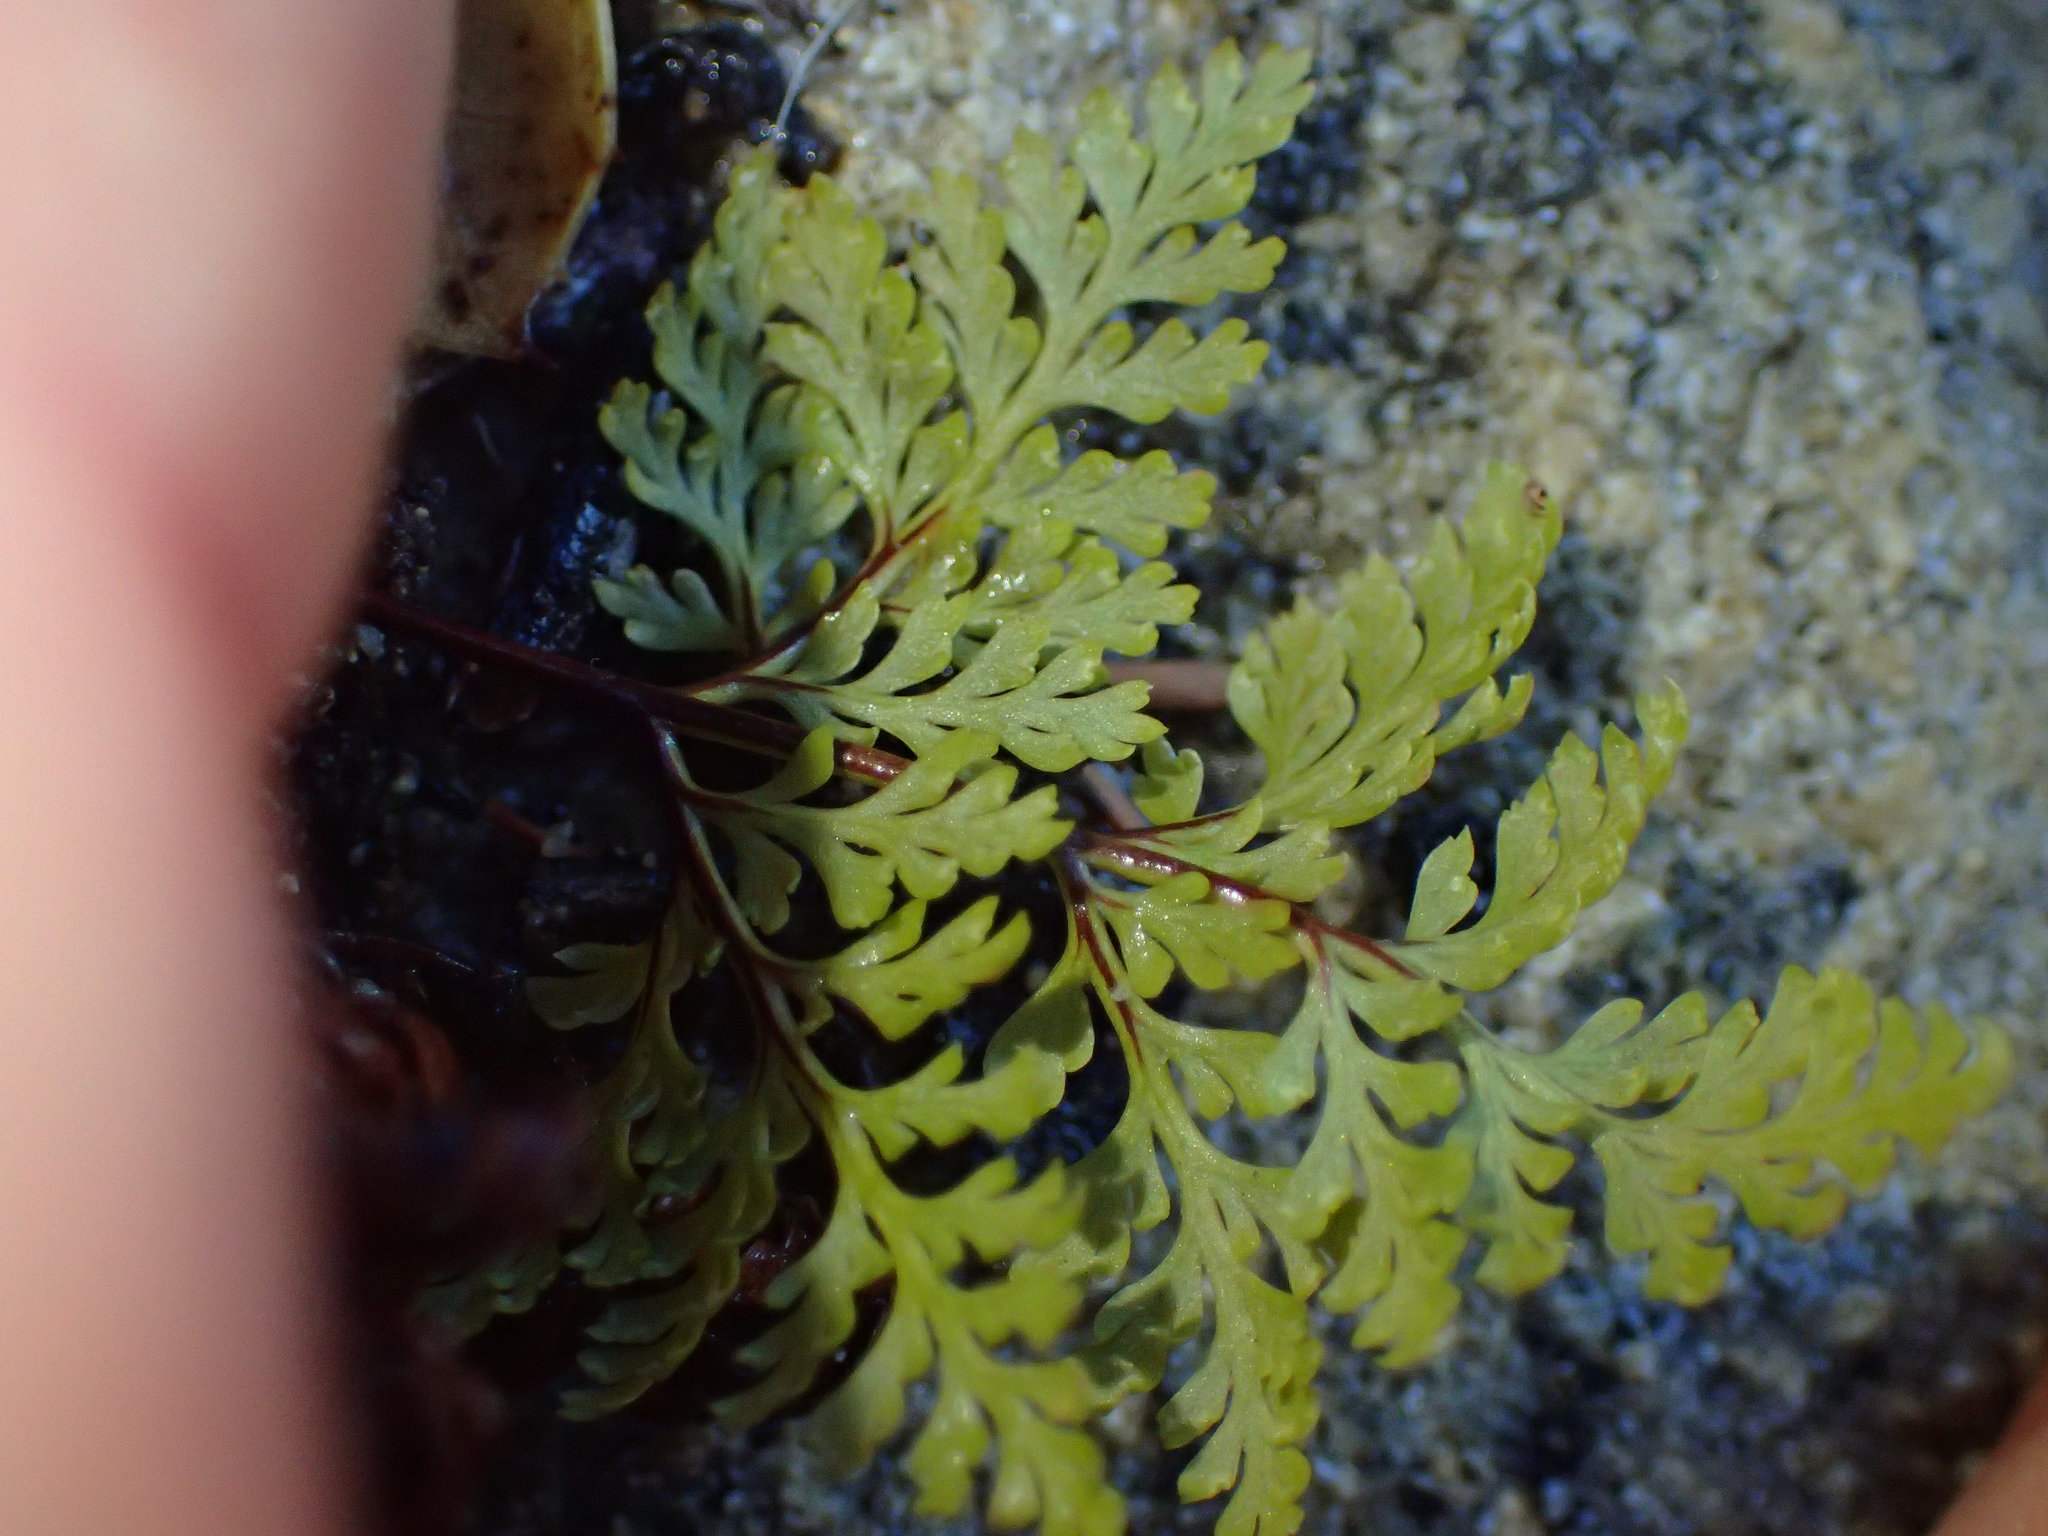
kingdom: Plantae
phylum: Tracheophyta
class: Polypodiopsida
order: Polypodiales
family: Pteridaceae
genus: Aspidotis
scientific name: Aspidotis californica
